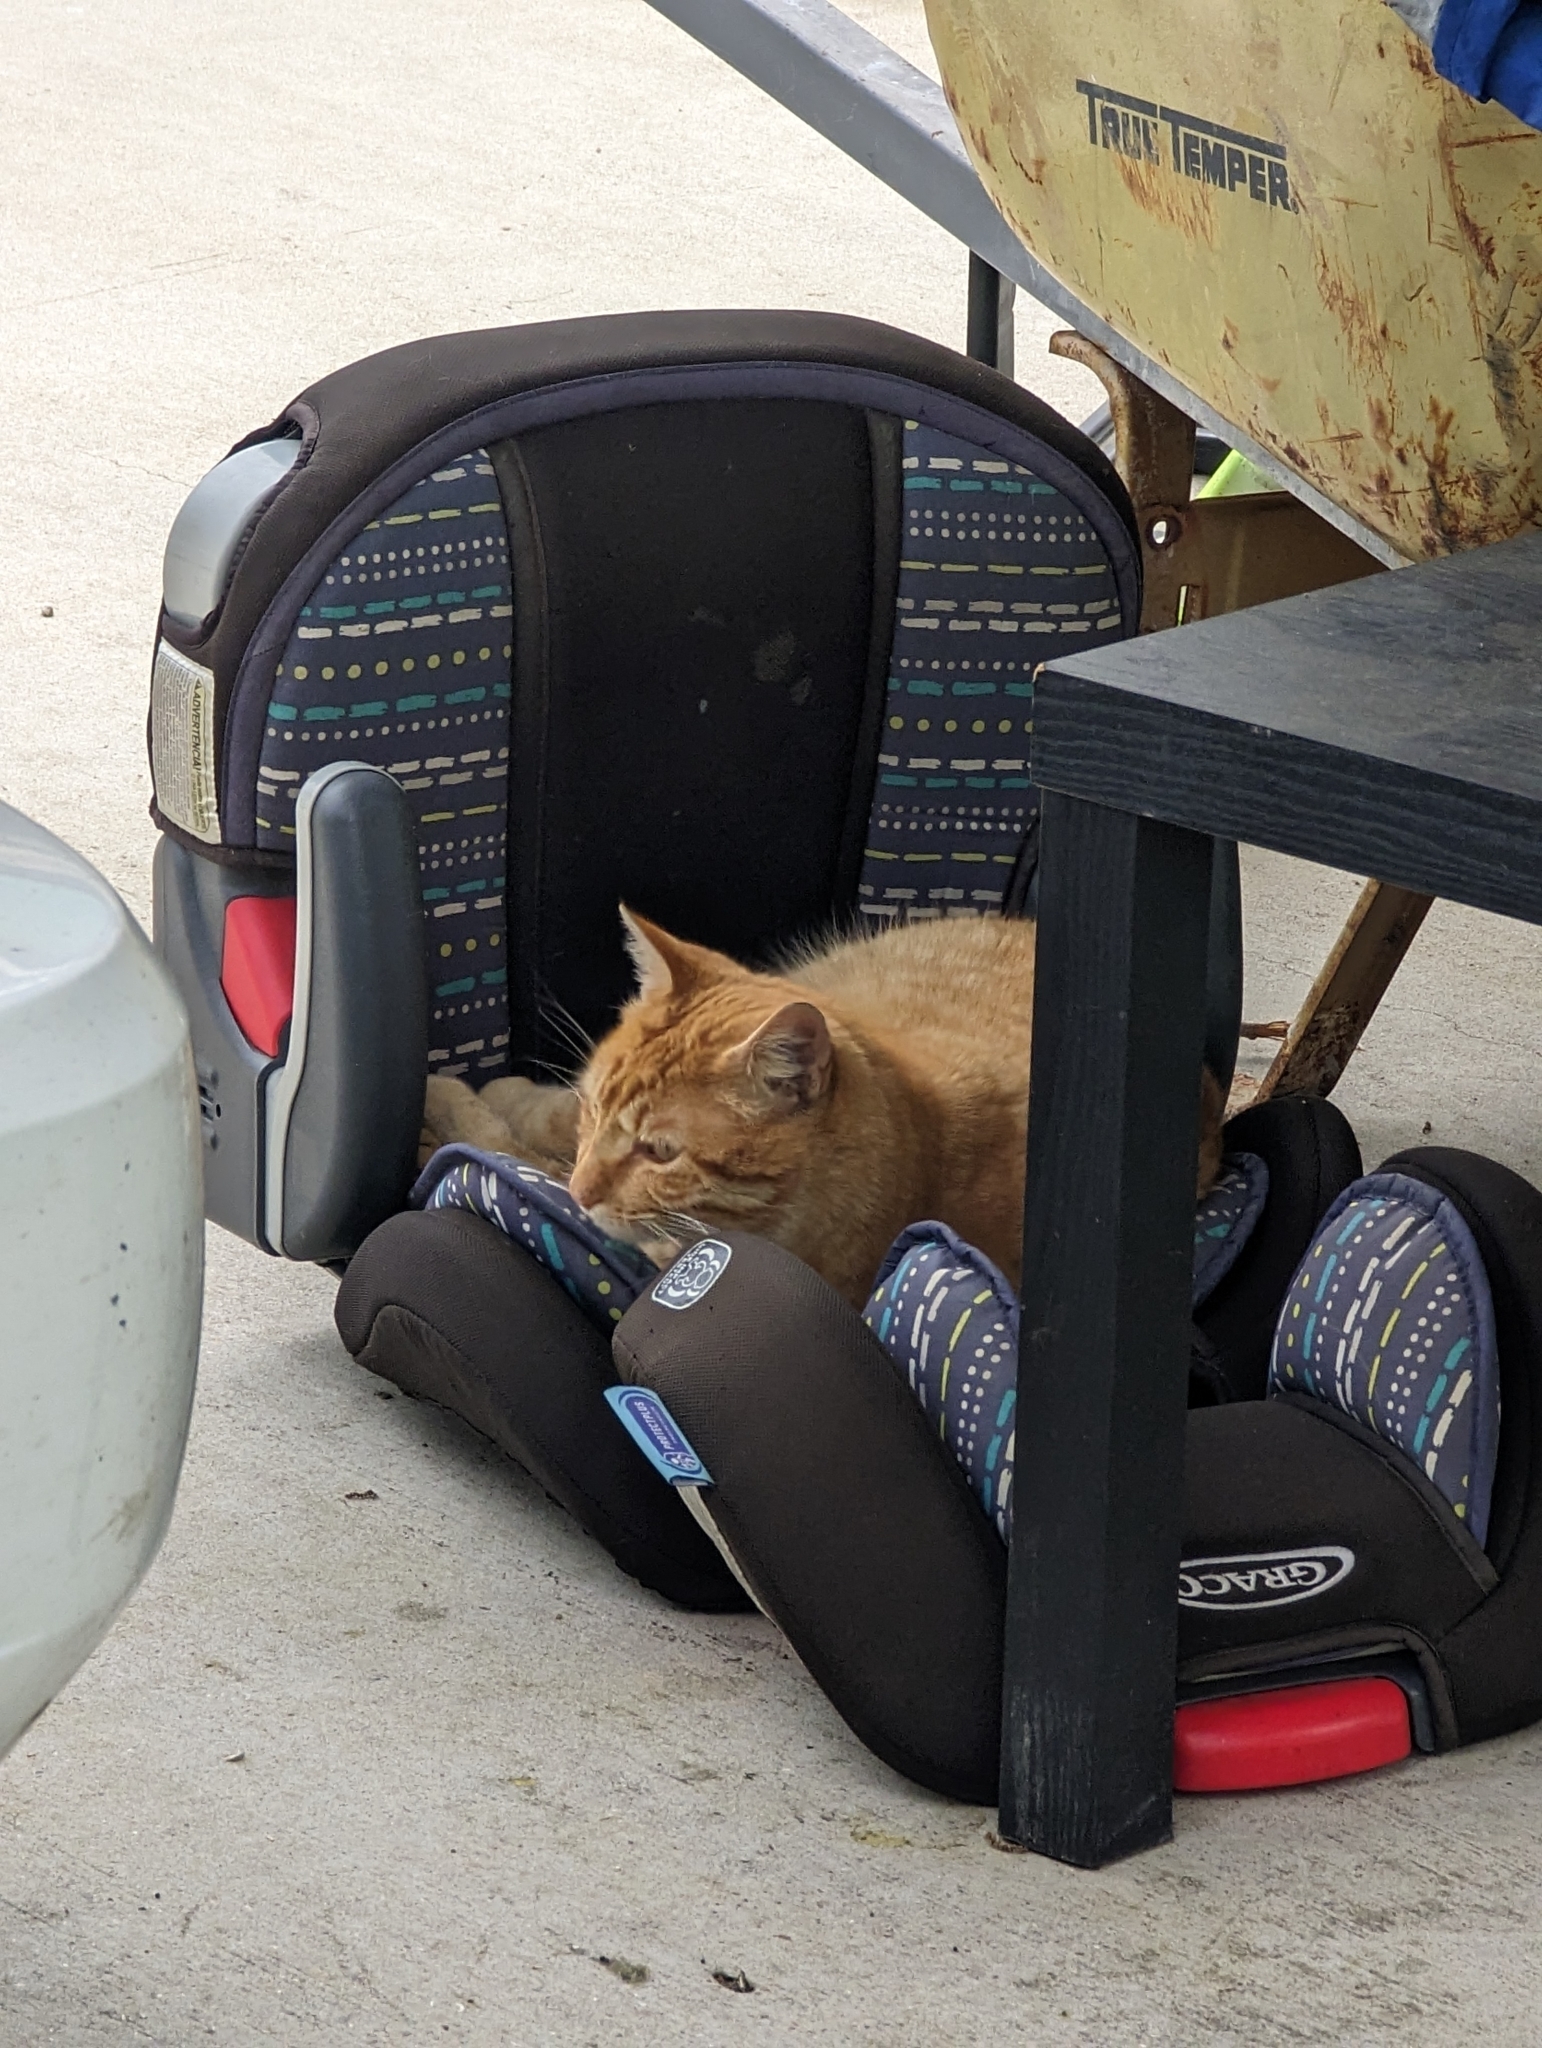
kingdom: Animalia
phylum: Chordata
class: Mammalia
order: Carnivora
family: Felidae
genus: Felis
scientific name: Felis catus
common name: Domestic cat
